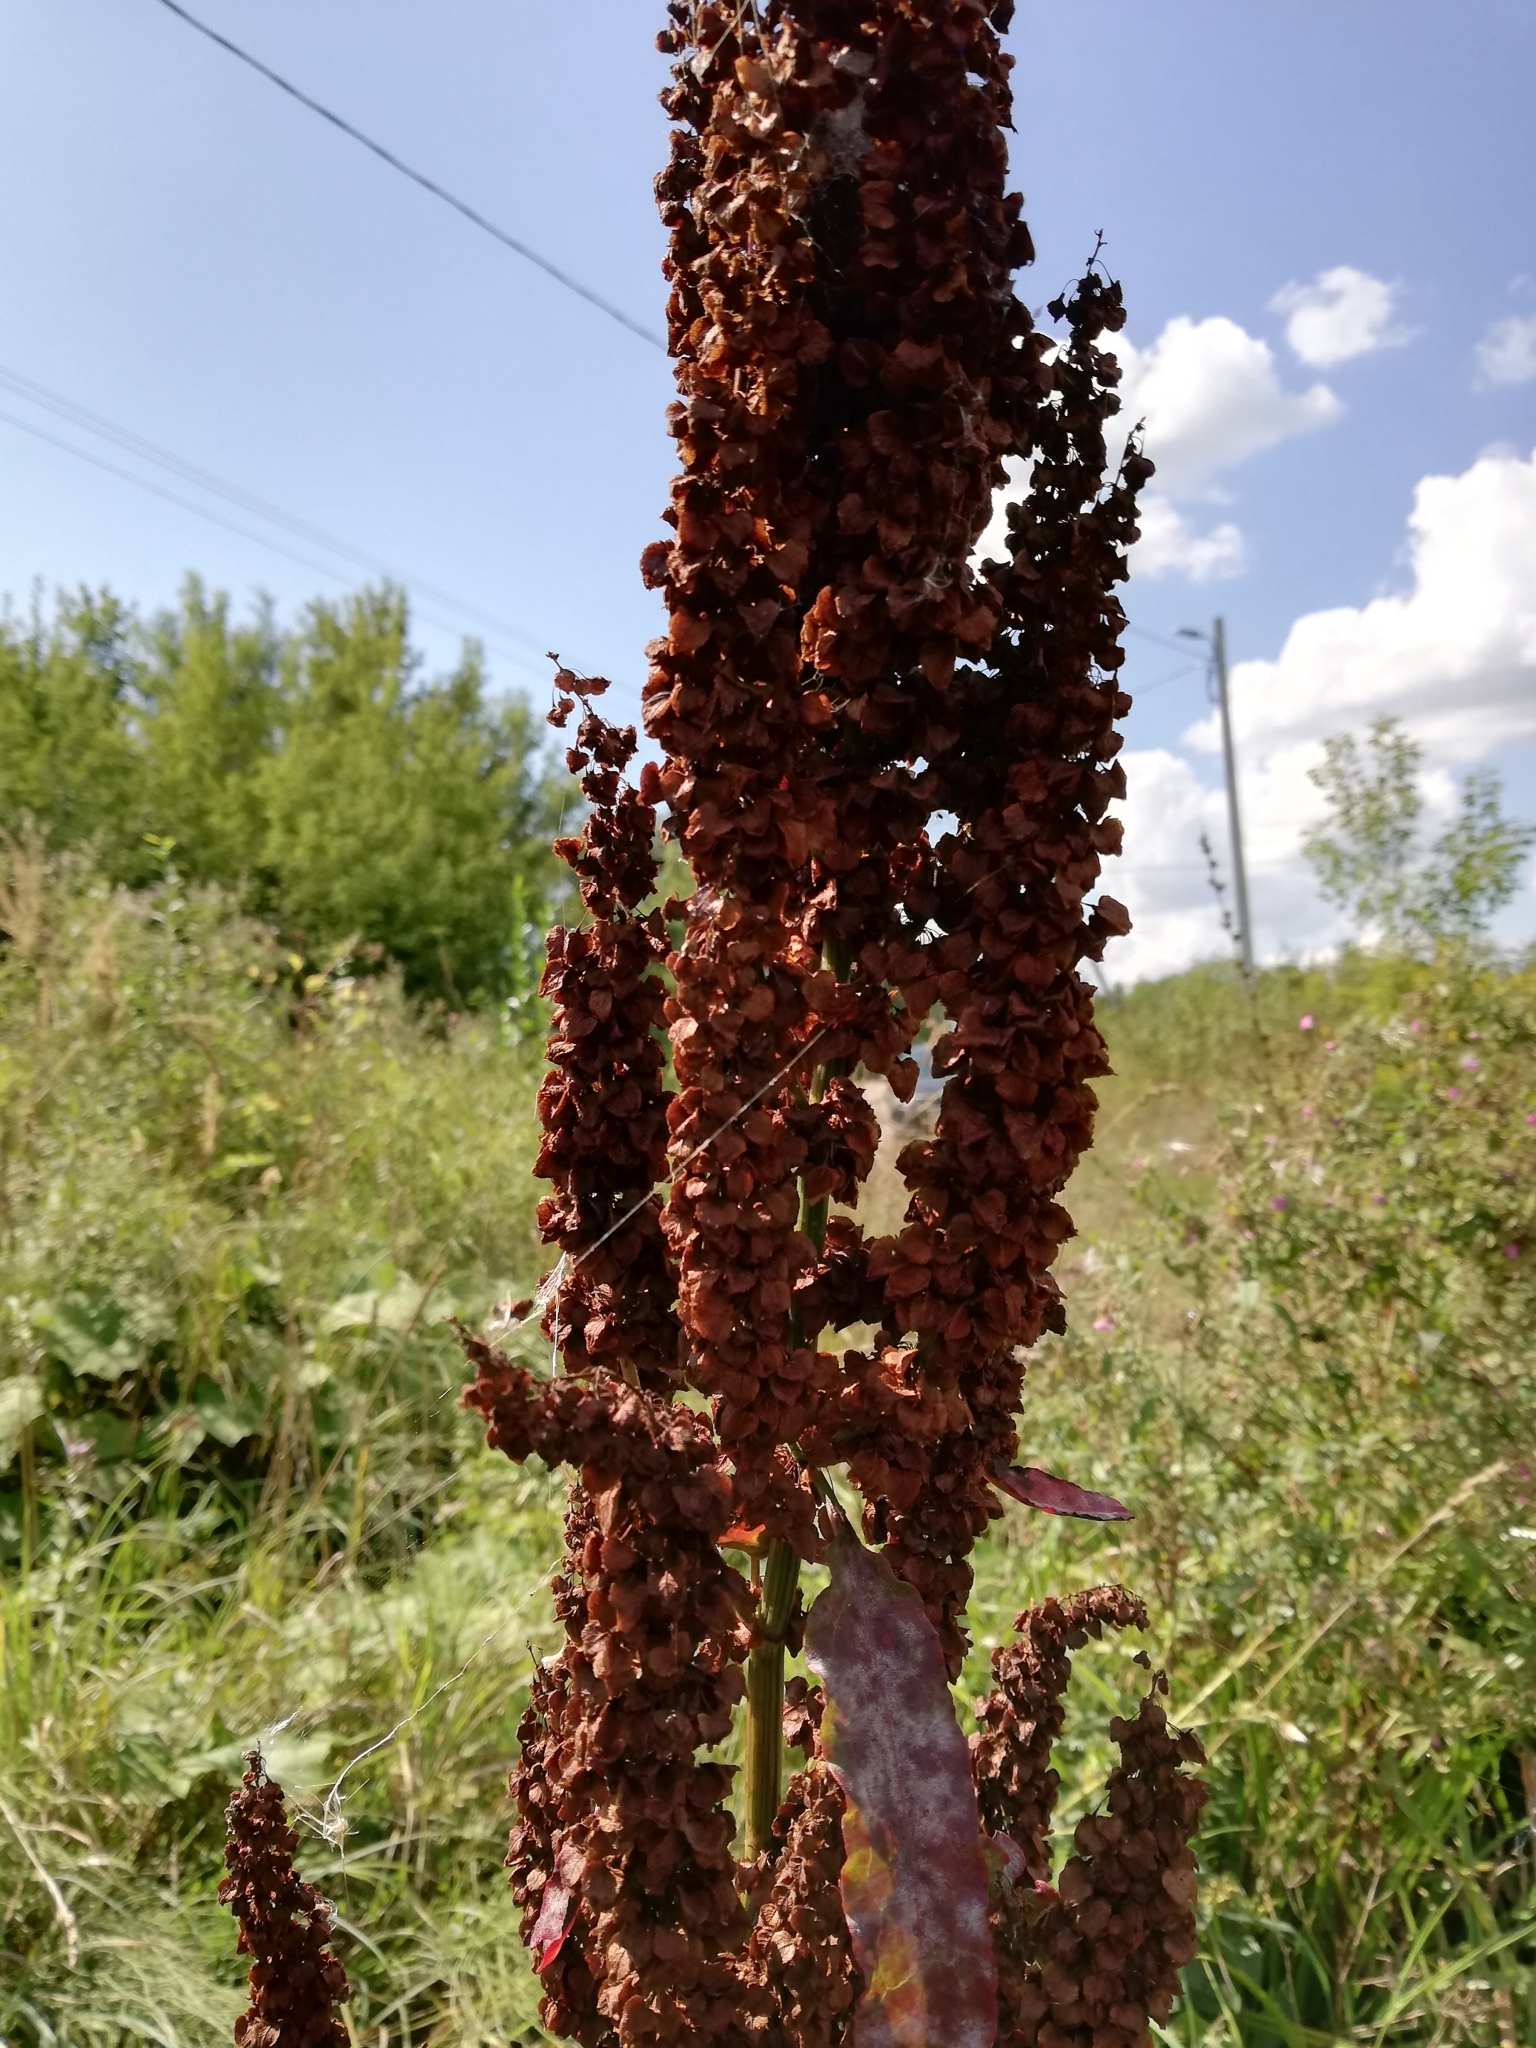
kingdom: Plantae
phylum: Tracheophyta
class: Magnoliopsida
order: Caryophyllales
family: Polygonaceae
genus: Rumex
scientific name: Rumex aquaticus
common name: Scottish dock
